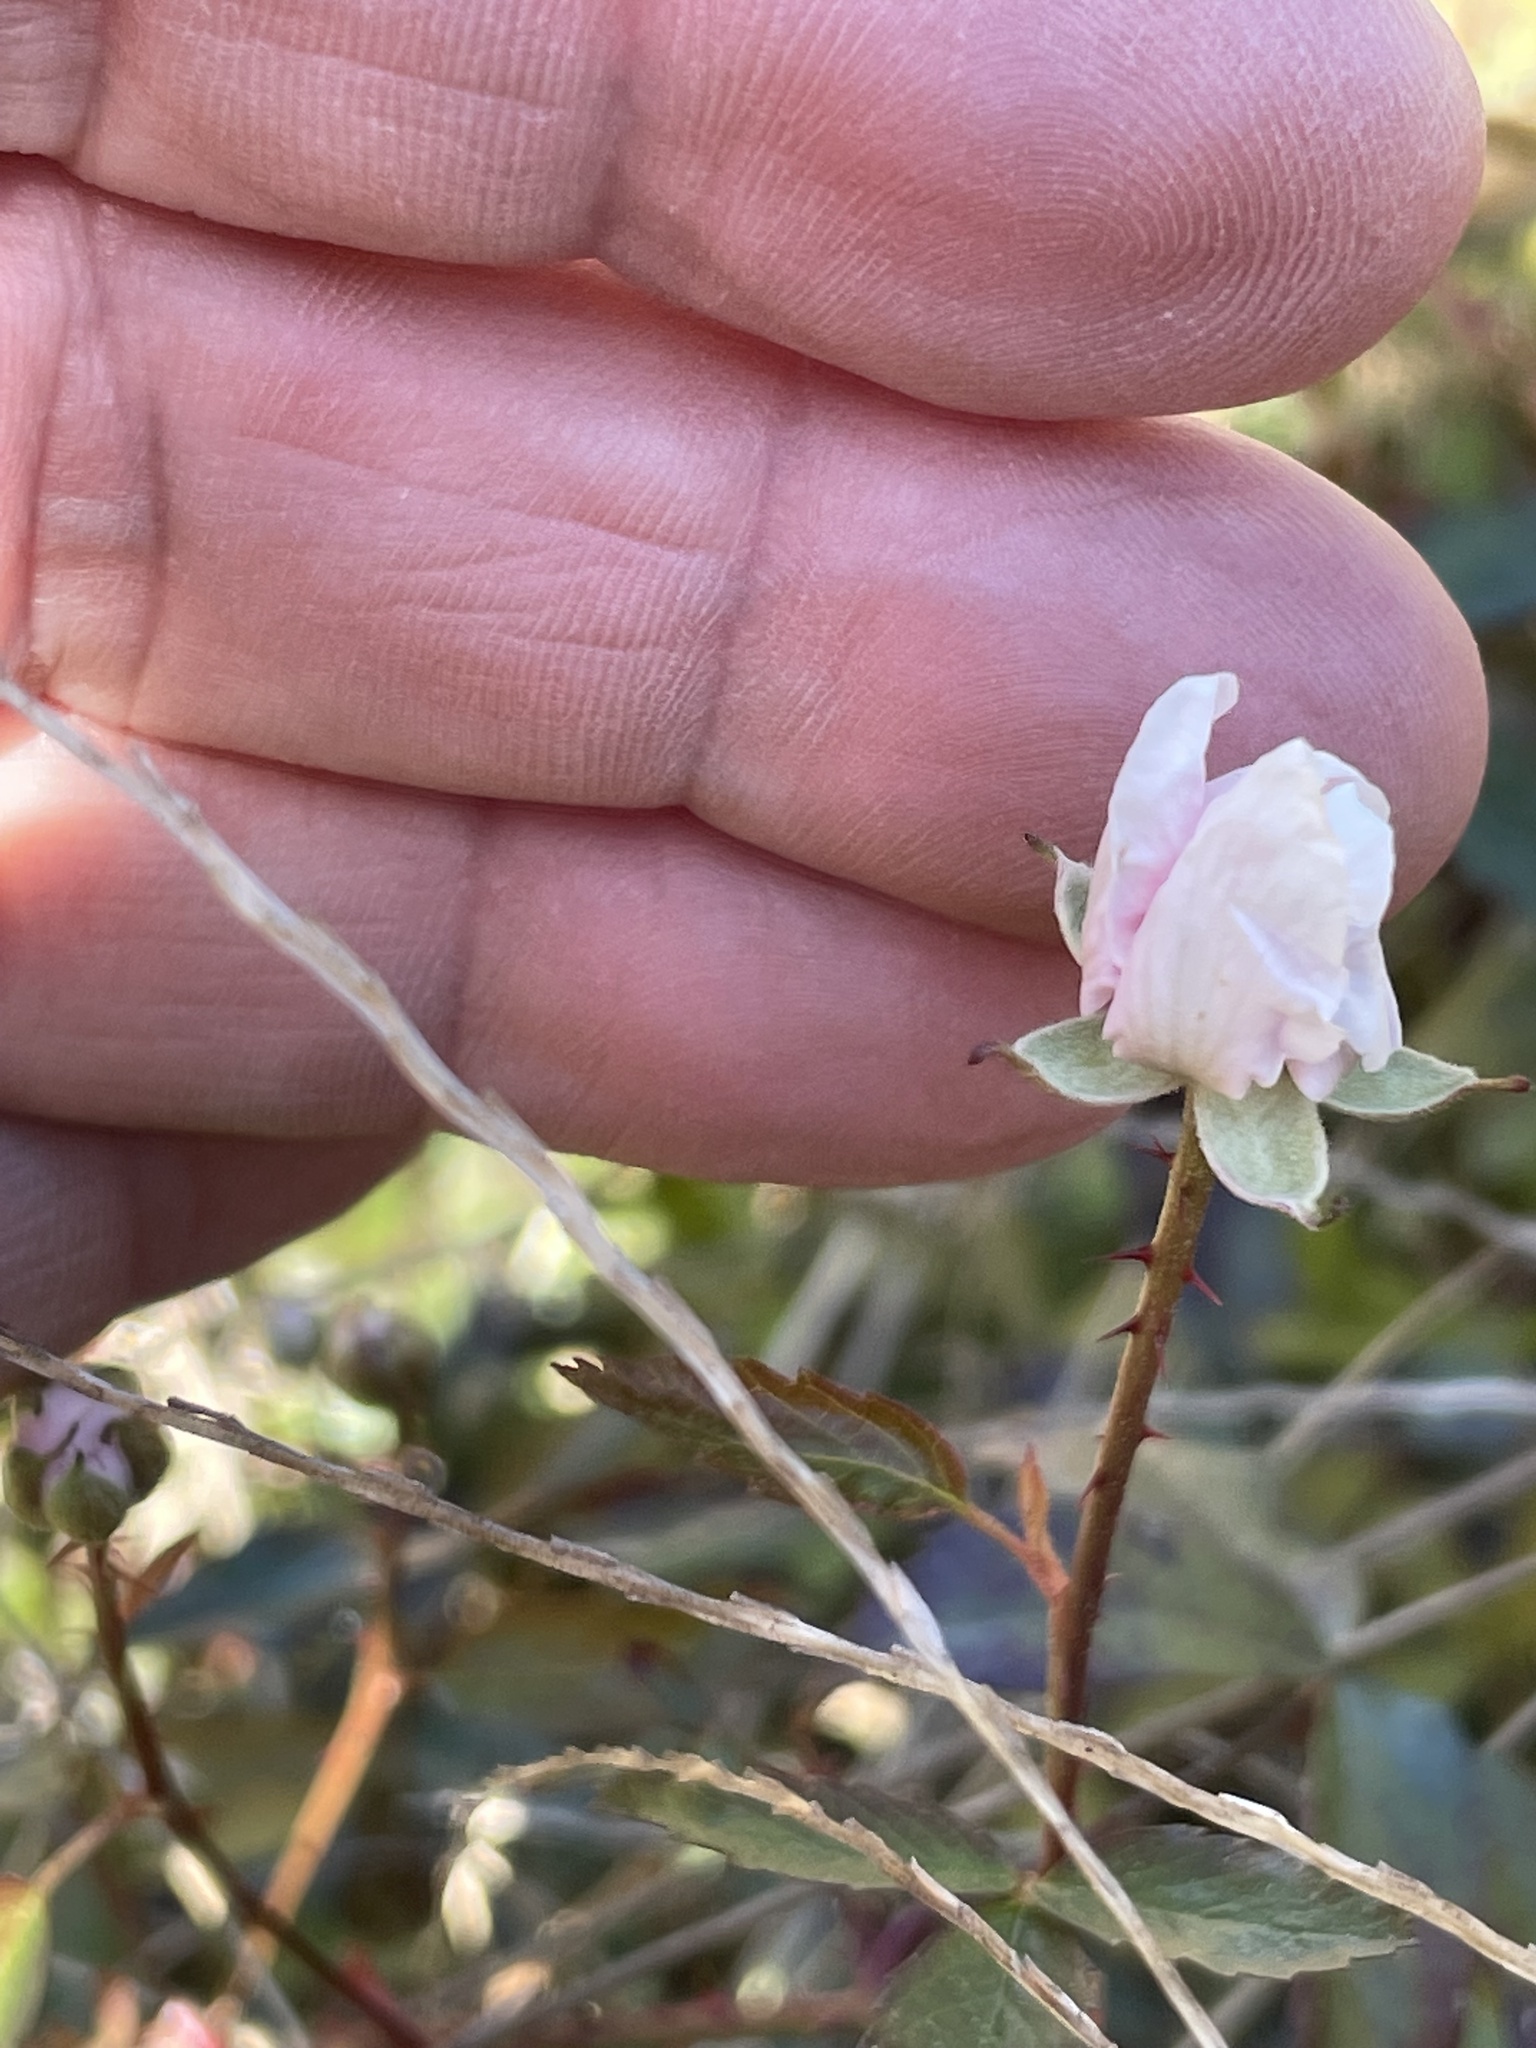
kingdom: Plantae
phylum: Tracheophyta
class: Magnoliopsida
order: Rosales
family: Rosaceae
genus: Rubus
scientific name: Rubus trivialis
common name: Southern dewberry
